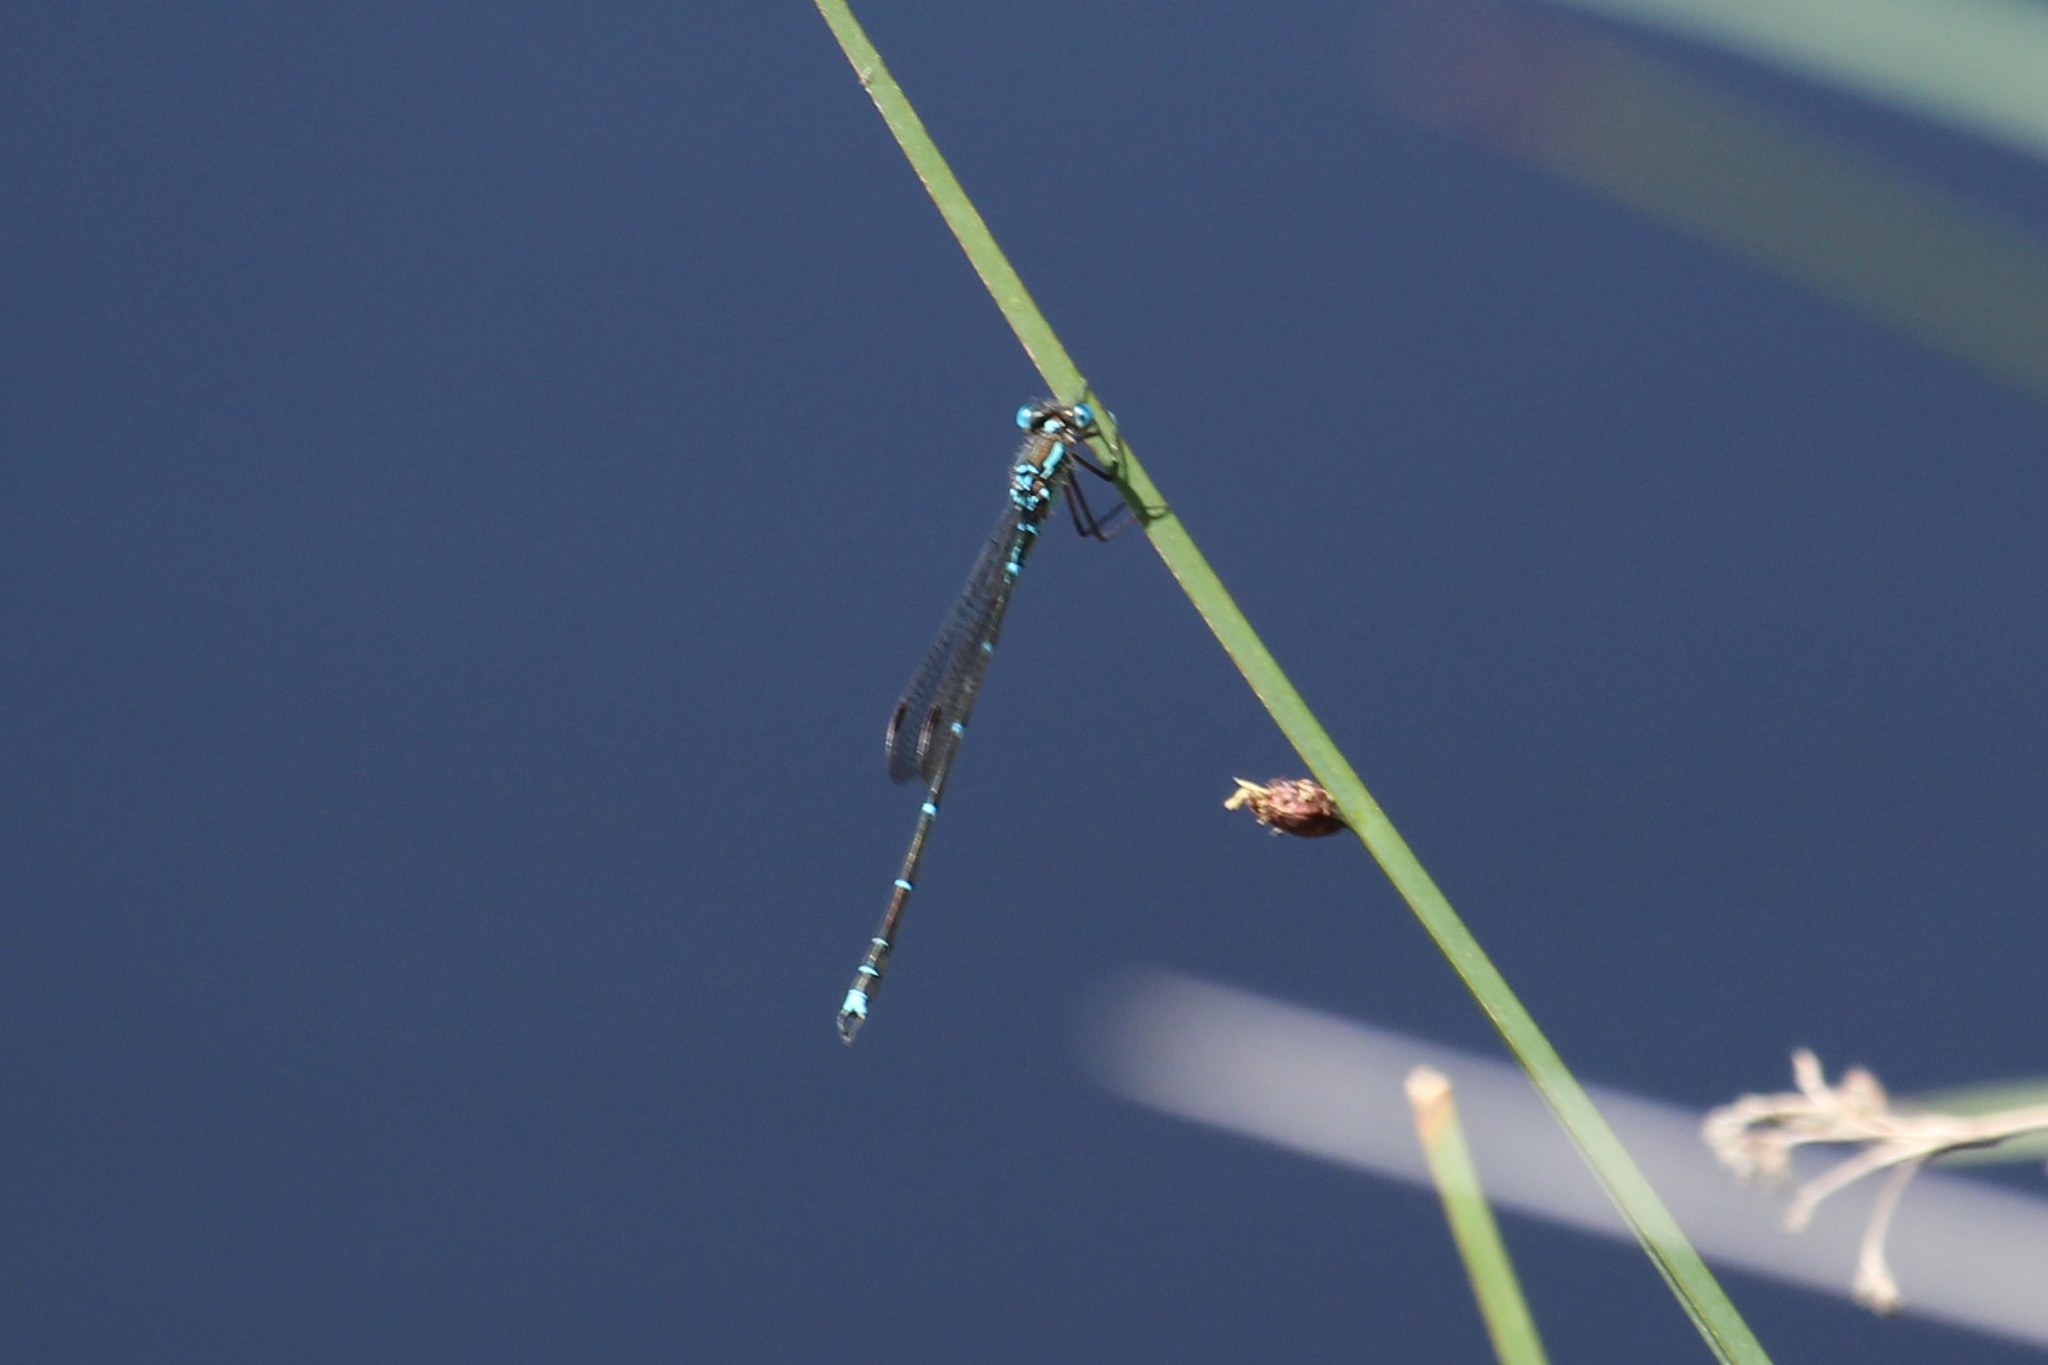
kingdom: Animalia
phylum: Arthropoda
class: Insecta
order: Odonata
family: Lestidae
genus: Austrolestes
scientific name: Austrolestes colensonis
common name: Blue damselfly
